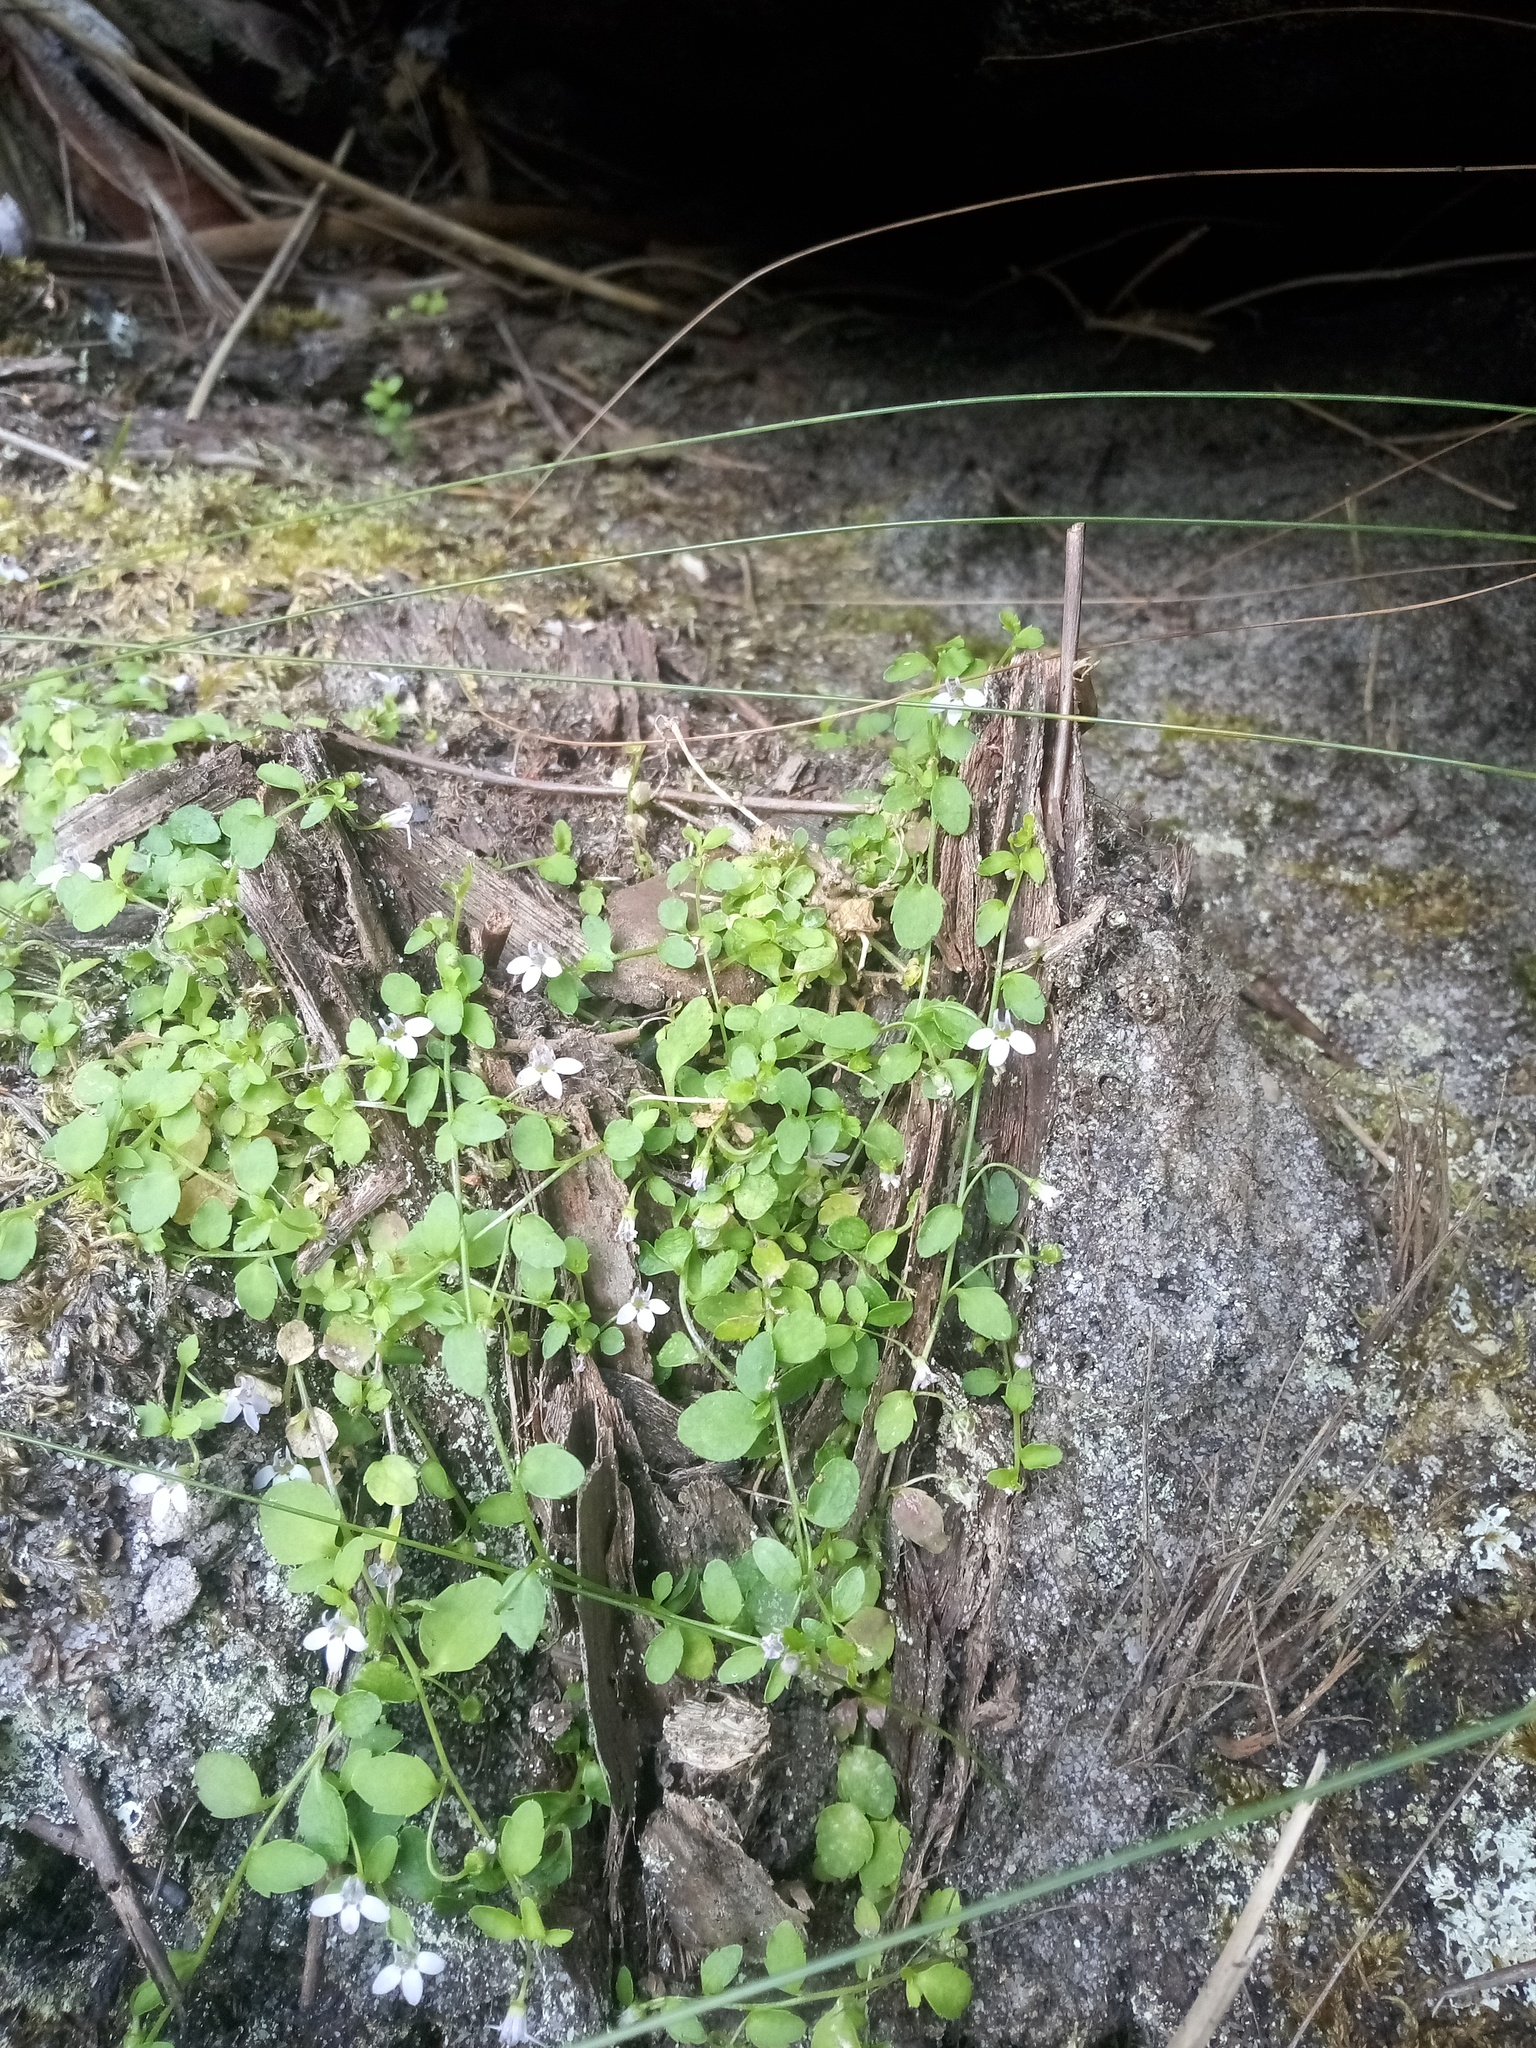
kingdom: Plantae
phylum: Tracheophyta
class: Magnoliopsida
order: Asterales
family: Campanulaceae
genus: Unigenes
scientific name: Unigenes humifusa
